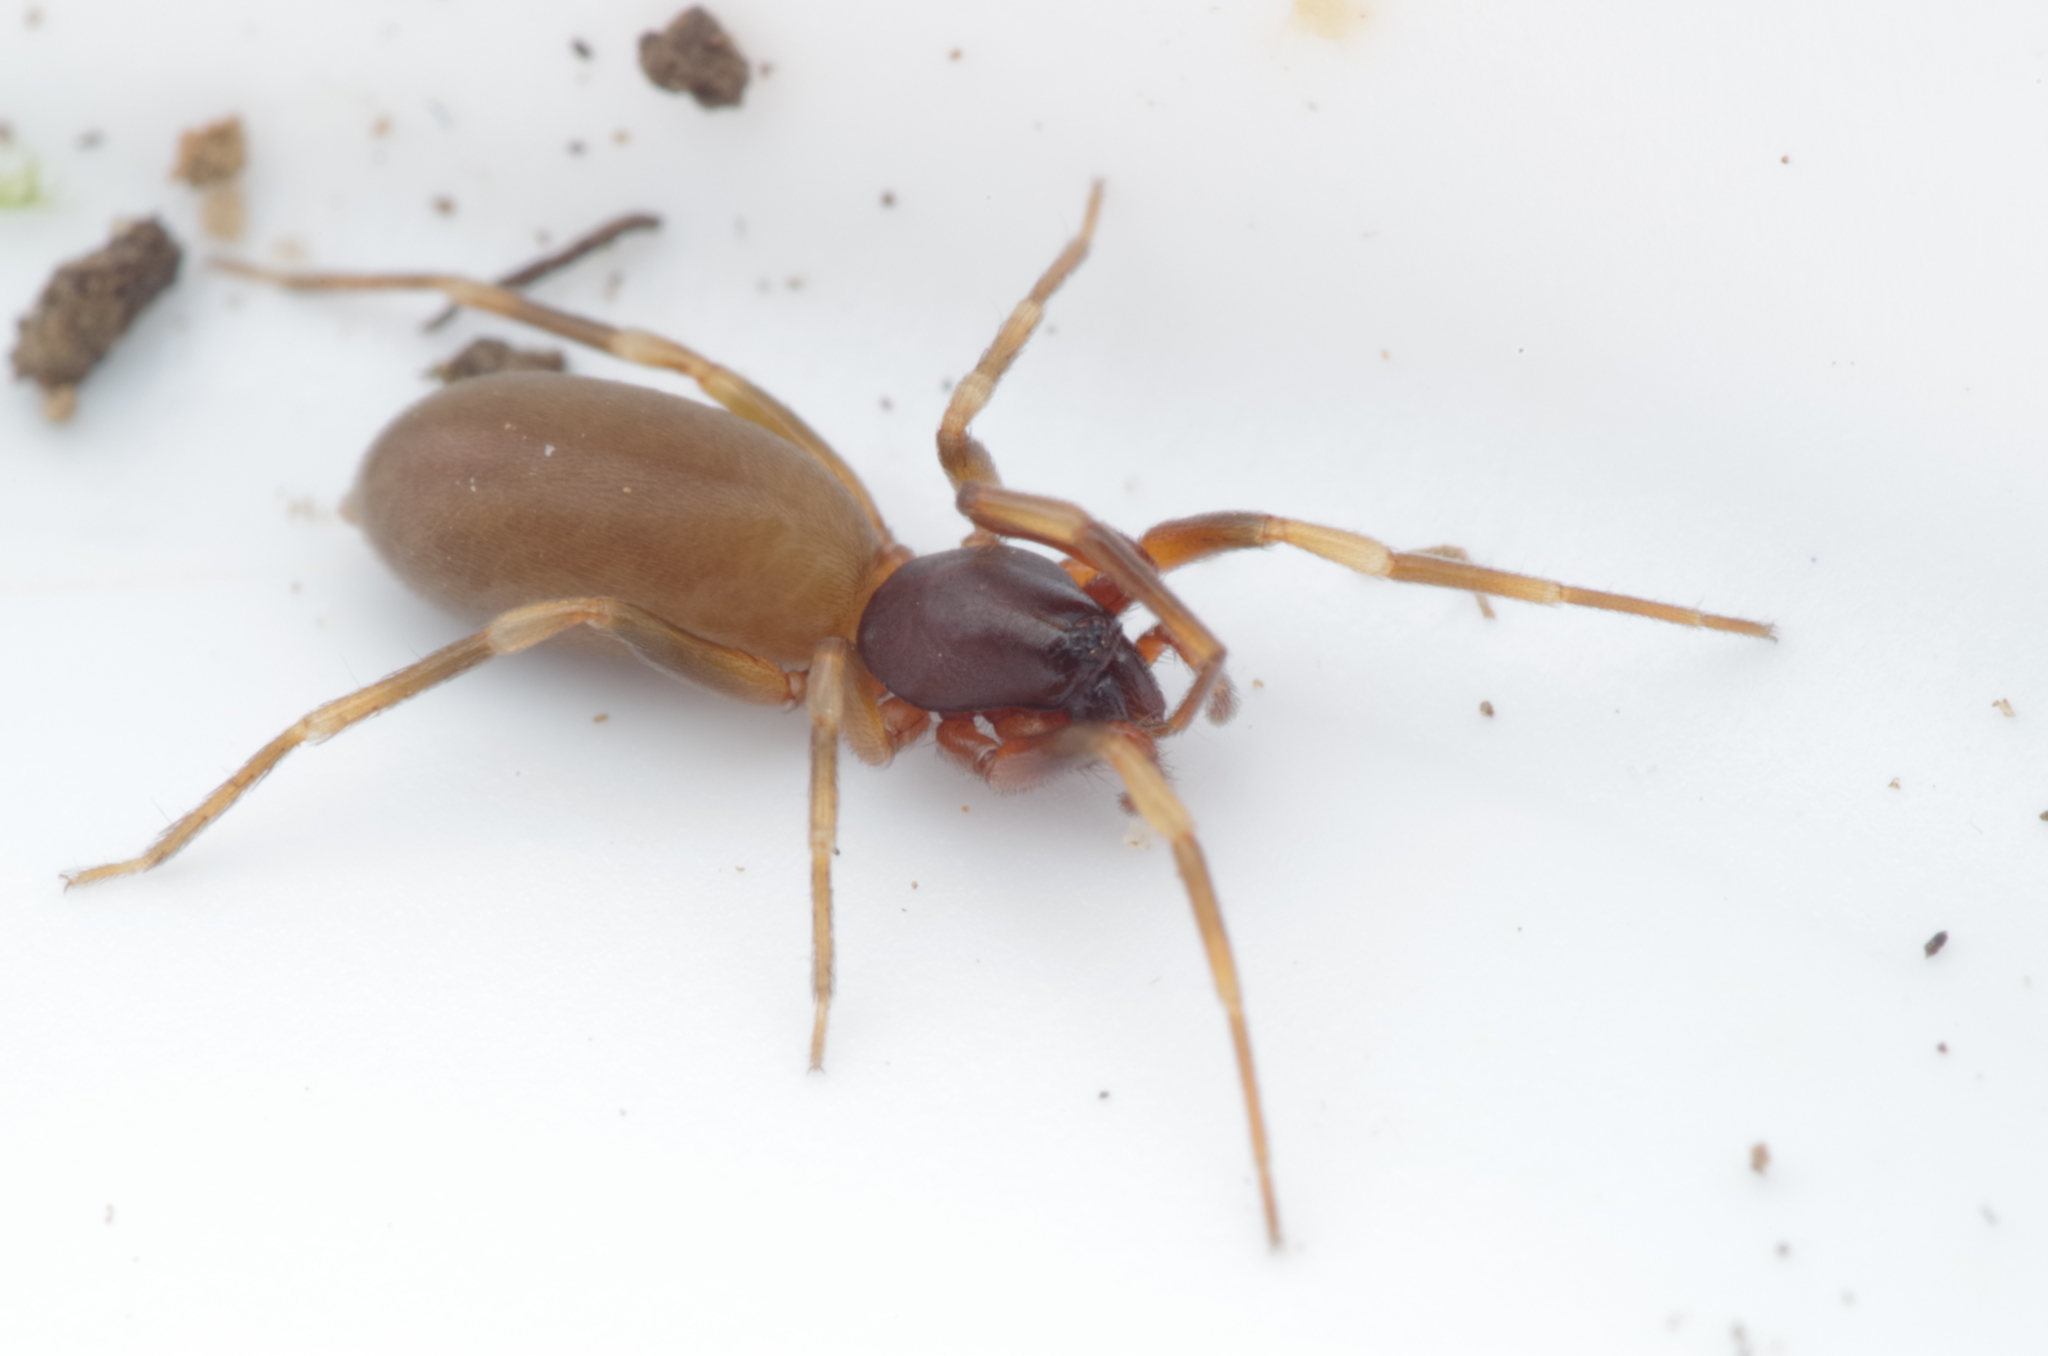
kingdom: Animalia
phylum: Arthropoda
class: Arachnida
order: Araneae
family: Dysderidae
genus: Harpactea
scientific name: Harpactea hombergi
